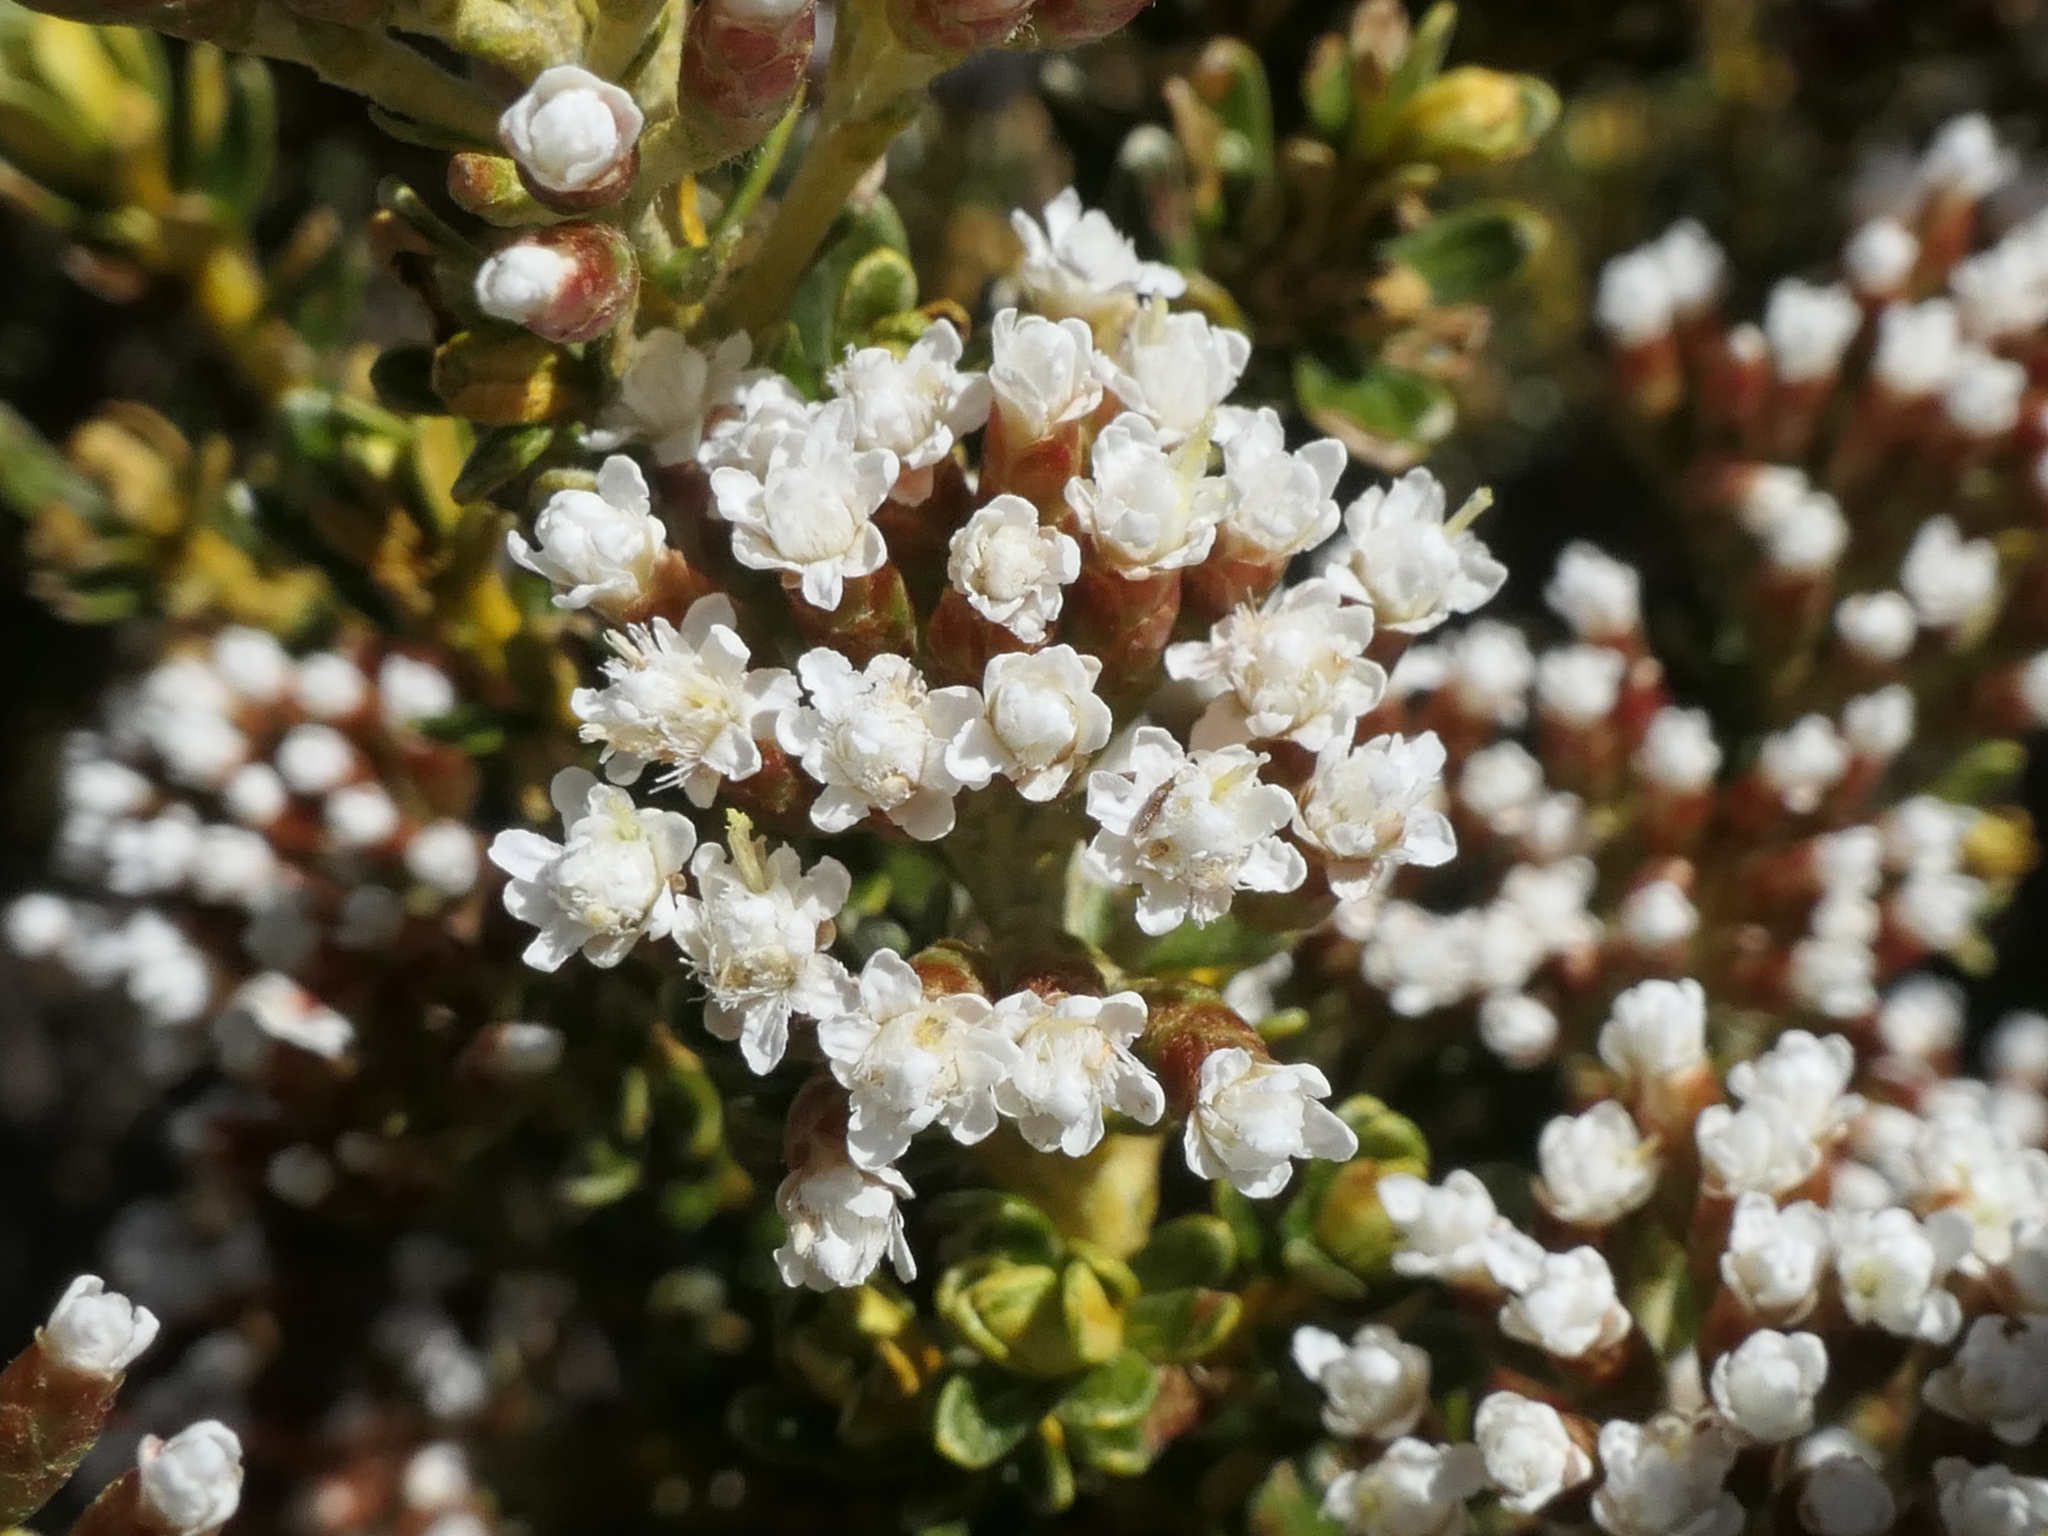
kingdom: Plantae
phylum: Tracheophyta
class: Magnoliopsida
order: Asterales
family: Asteraceae
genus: Ozothamnus
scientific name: Ozothamnus leptophyllus
